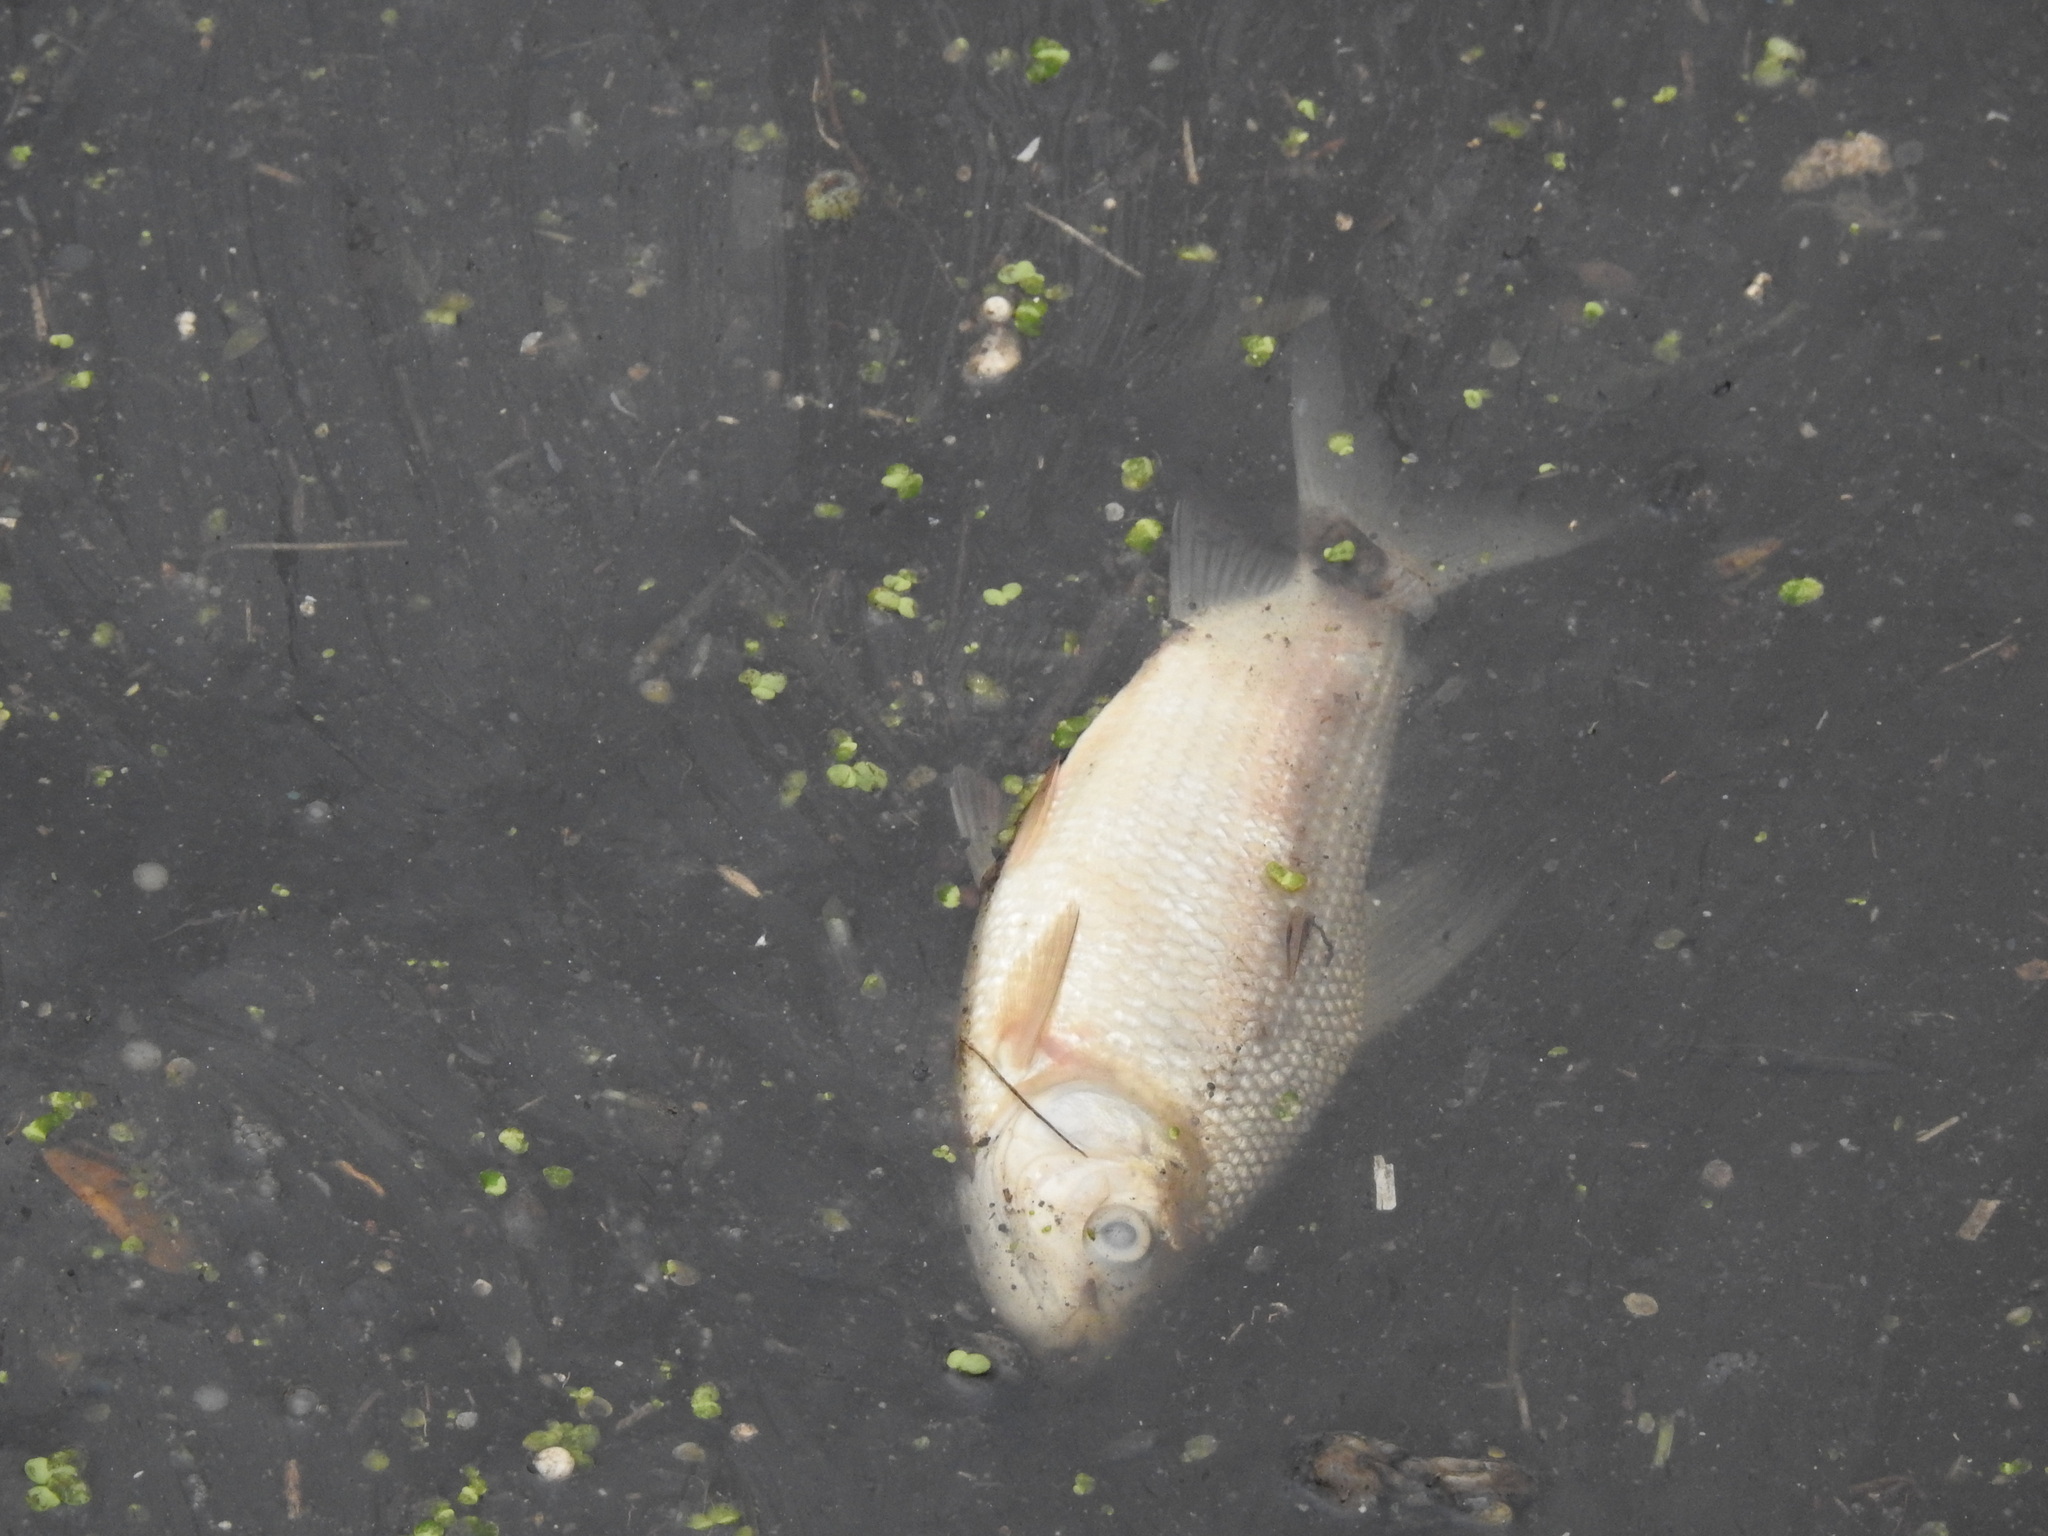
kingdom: Animalia
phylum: Chordata
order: Characiformes
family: Prochilodontidae
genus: Prochilodus
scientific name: Prochilodus lineatus
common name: Curimbata
